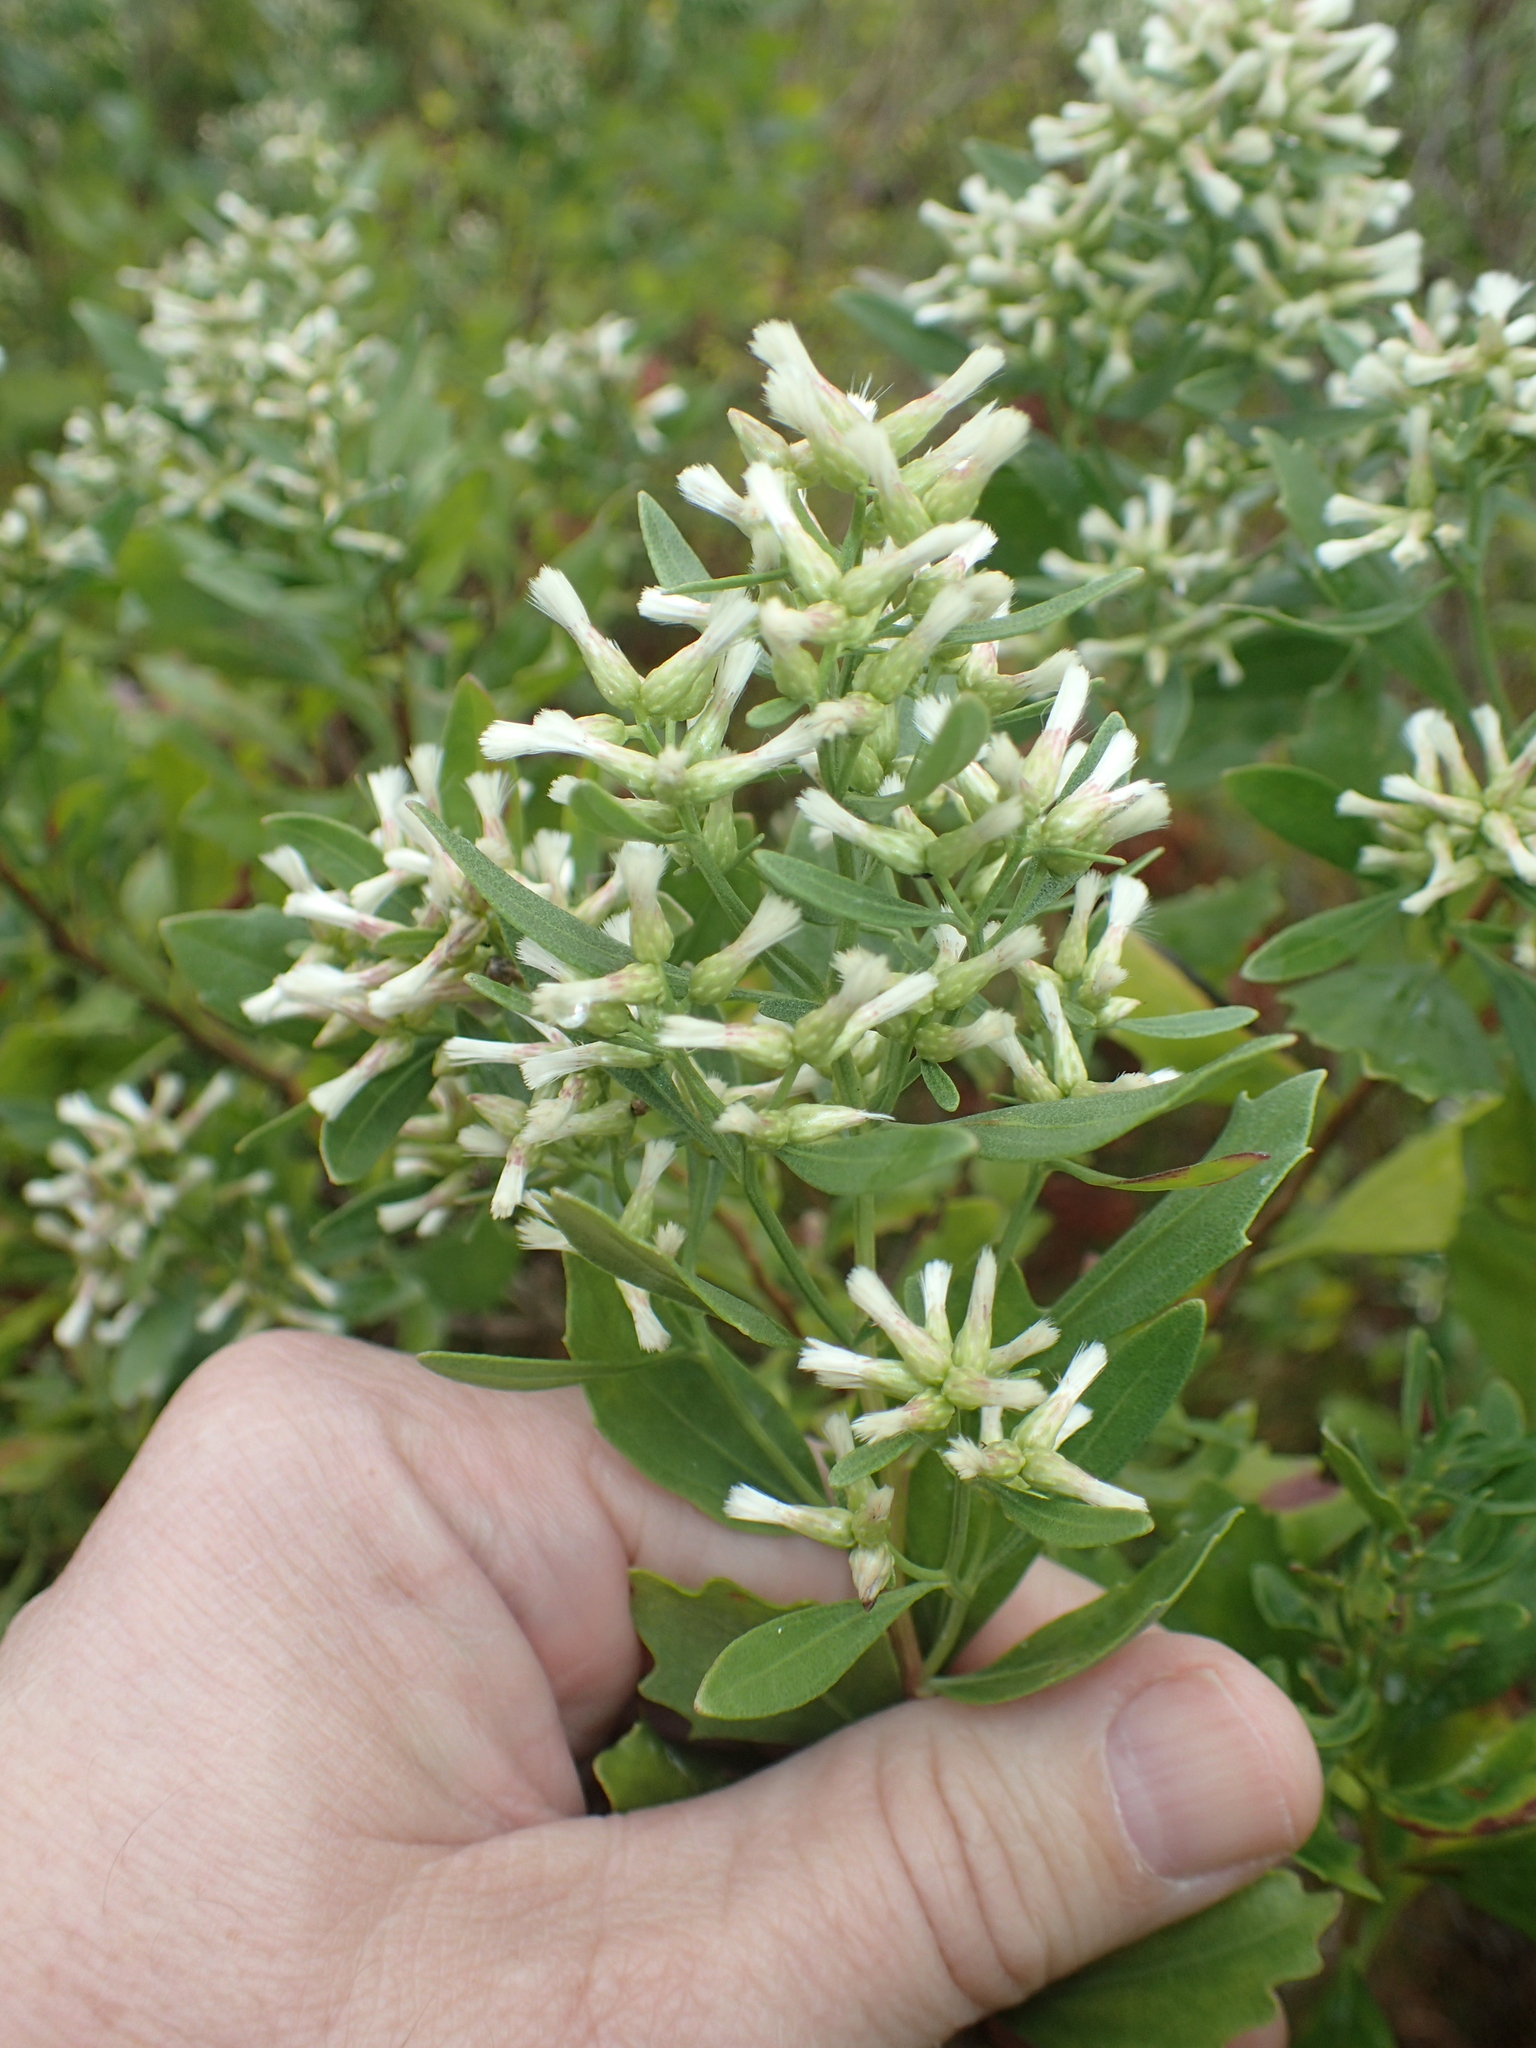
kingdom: Plantae
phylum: Tracheophyta
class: Magnoliopsida
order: Asterales
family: Asteraceae
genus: Baccharis
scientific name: Baccharis halimifolia
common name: Eastern baccharis
